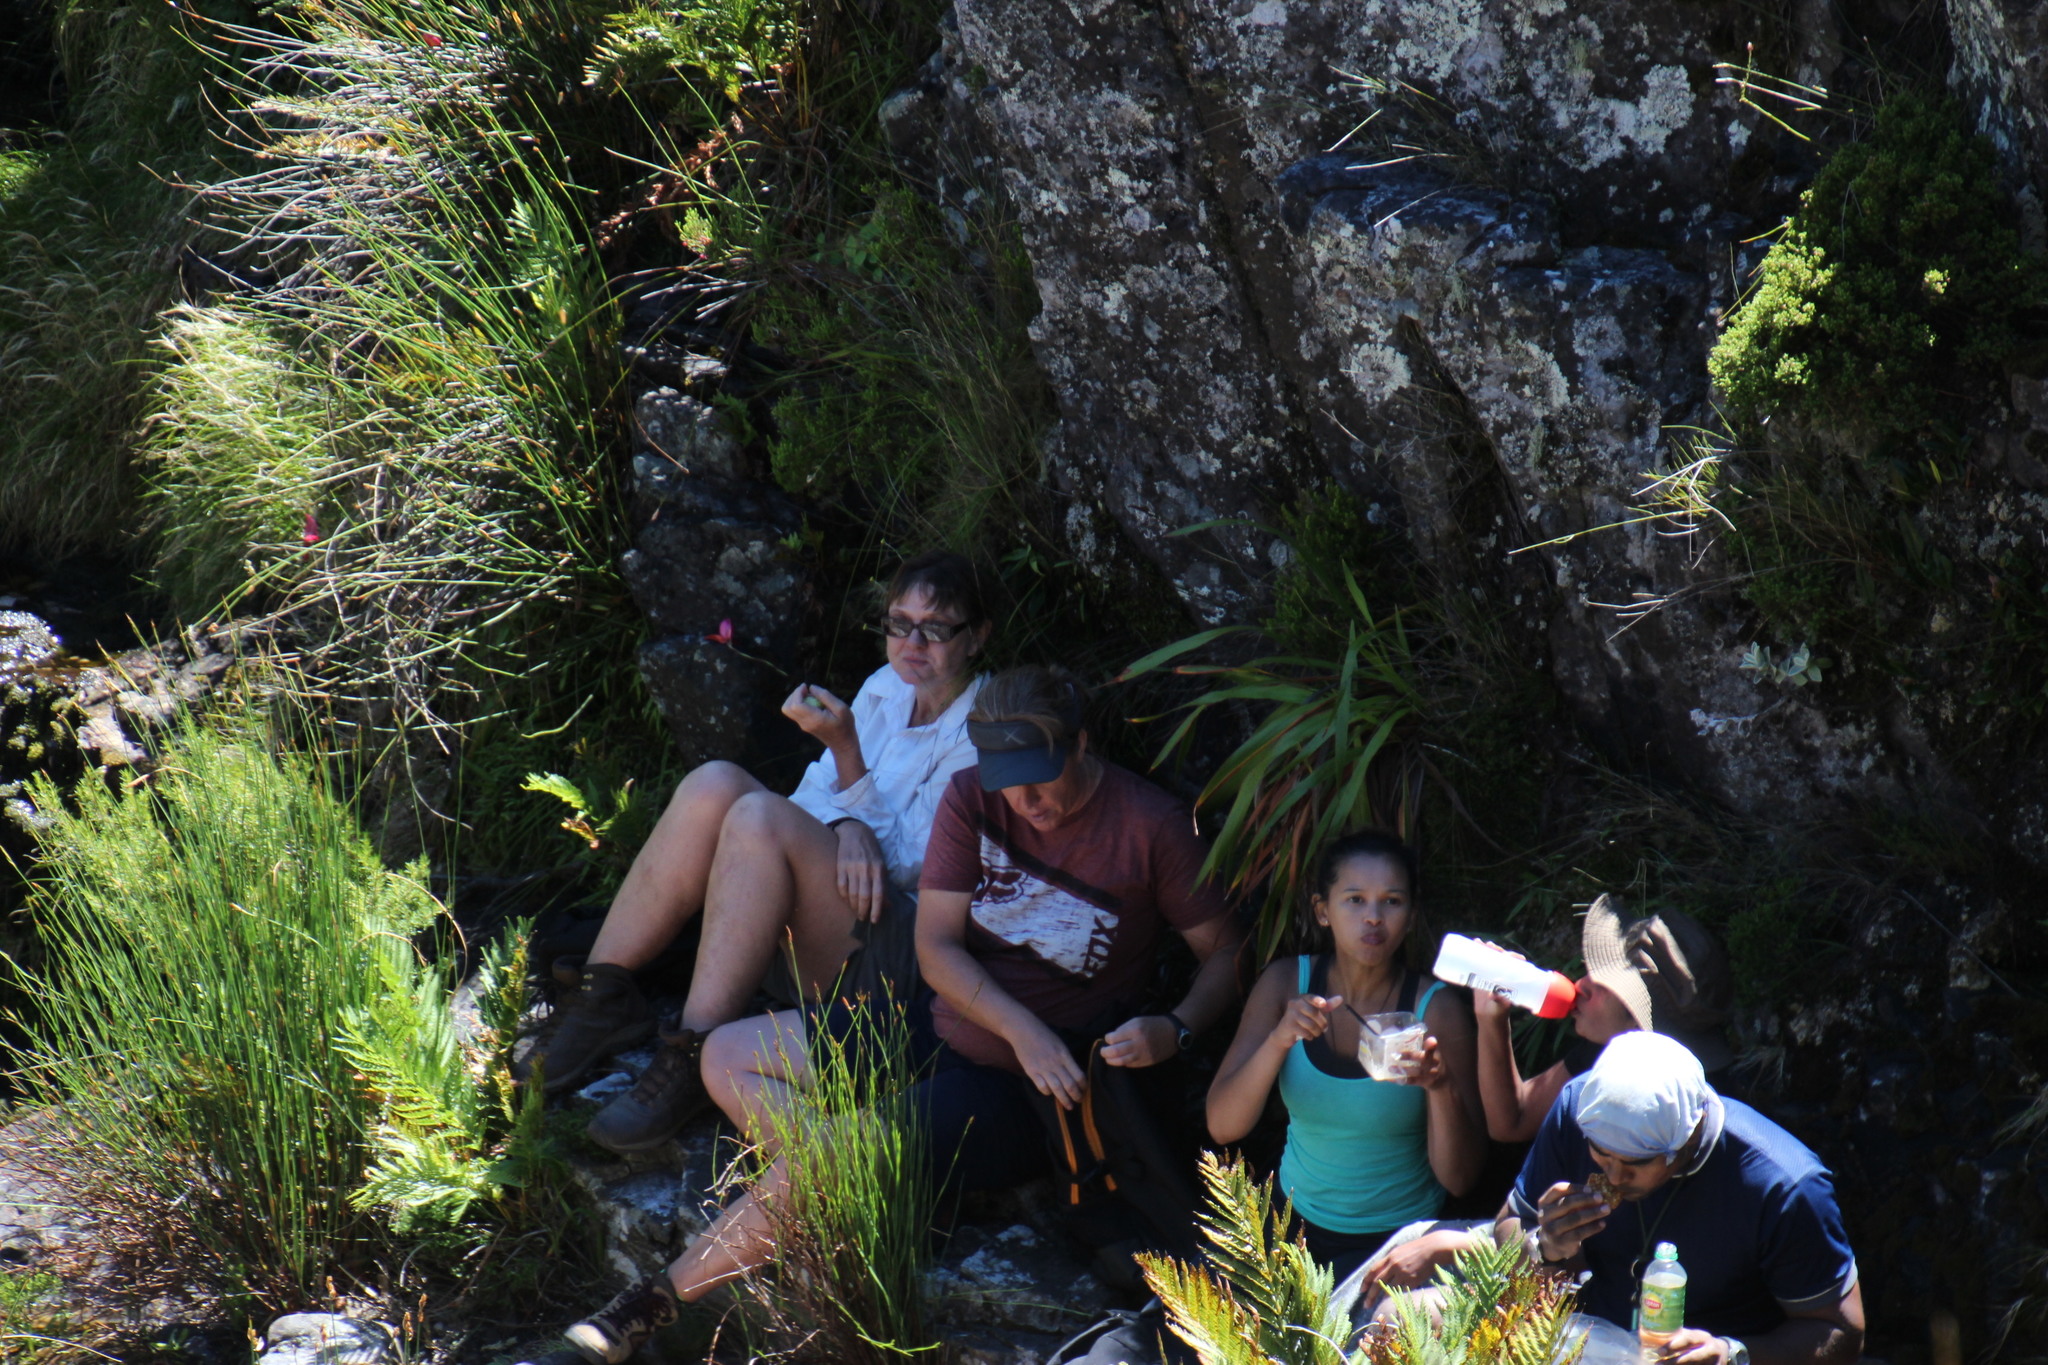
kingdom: Plantae
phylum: Tracheophyta
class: Liliopsida
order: Asparagales
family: Orchidaceae
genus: Disa
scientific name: Disa uniflora
